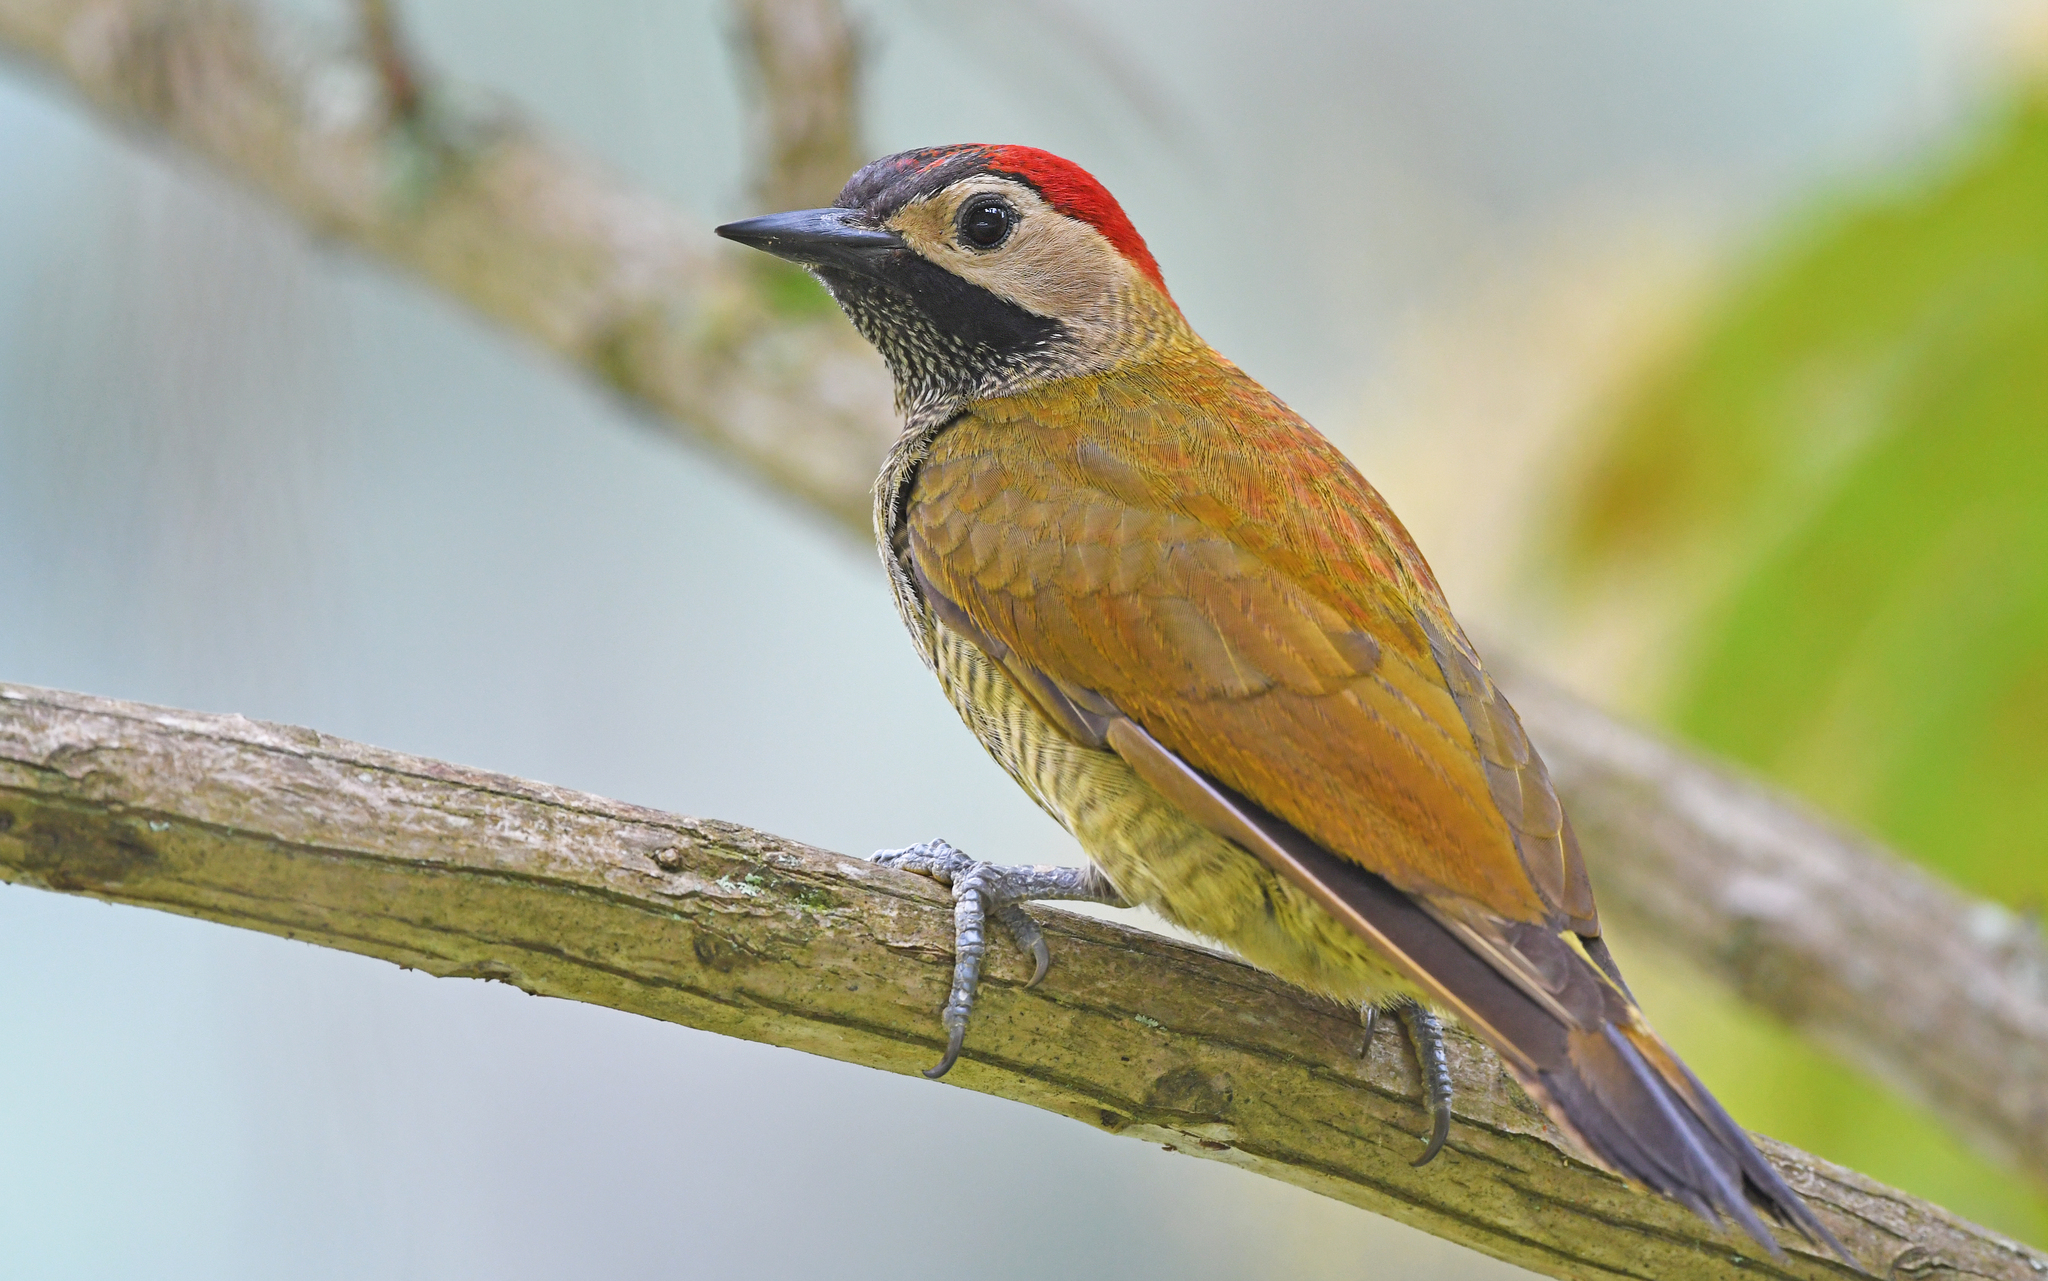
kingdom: Animalia
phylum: Chordata
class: Aves
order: Piciformes
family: Picidae
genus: Colaptes
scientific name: Colaptes rubiginosus
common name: Golden-olive woodpecker
